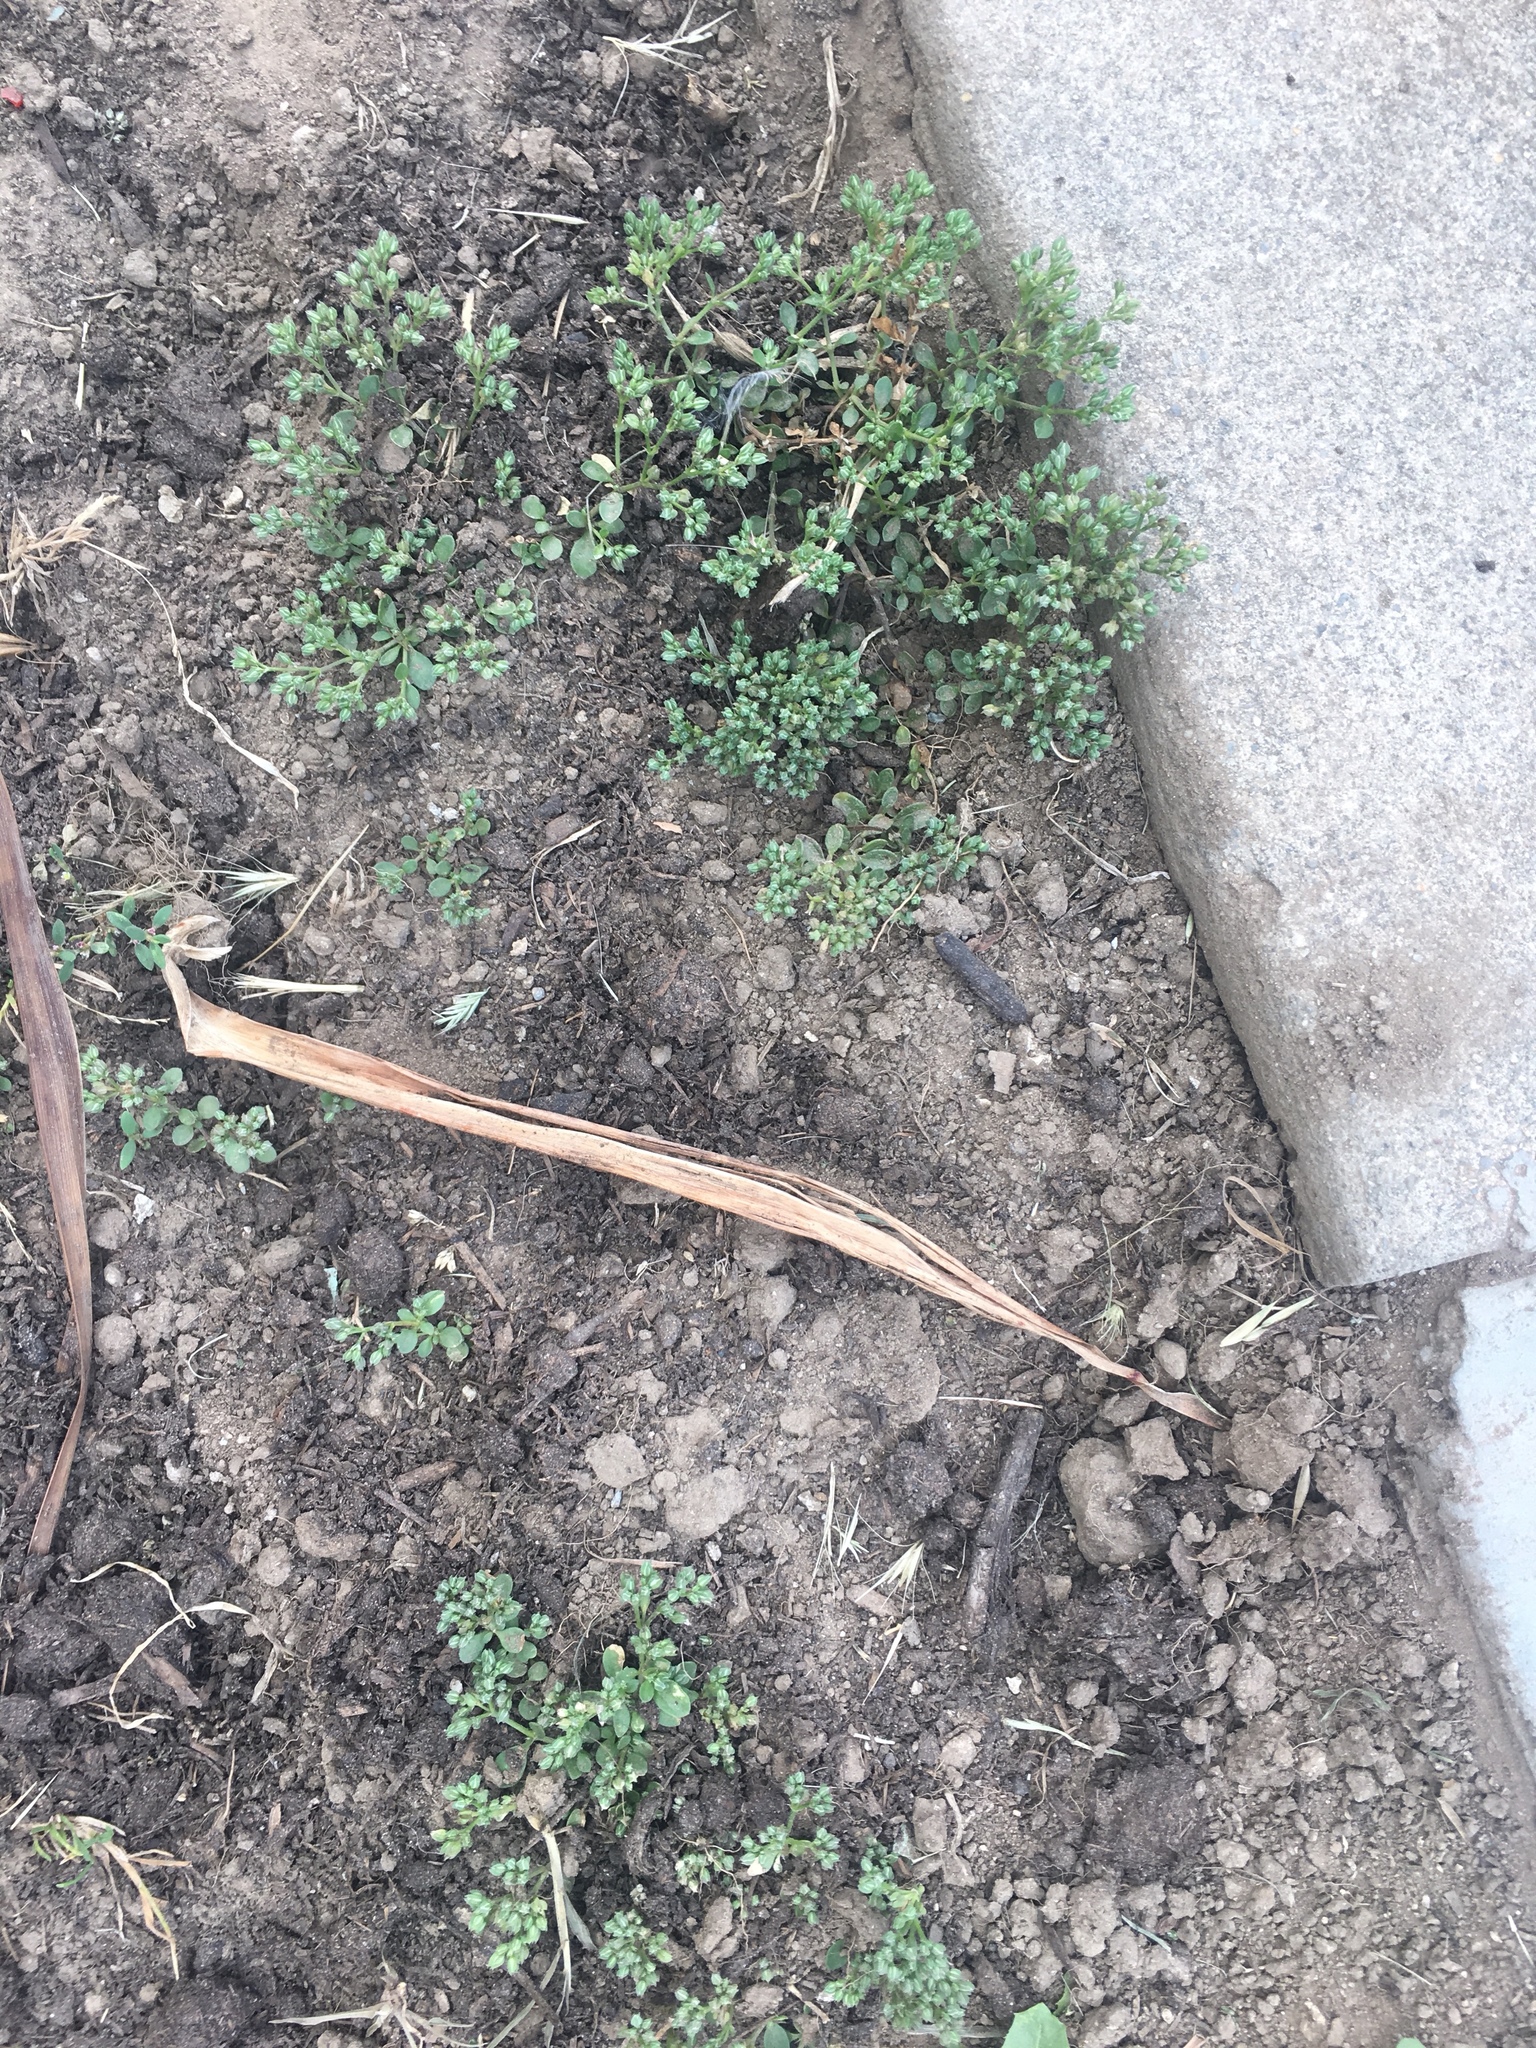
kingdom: Plantae
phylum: Tracheophyta
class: Magnoliopsida
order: Caryophyllales
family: Caryophyllaceae
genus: Polycarpon
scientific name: Polycarpon tetraphyllum
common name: Four-leaved all-seed
